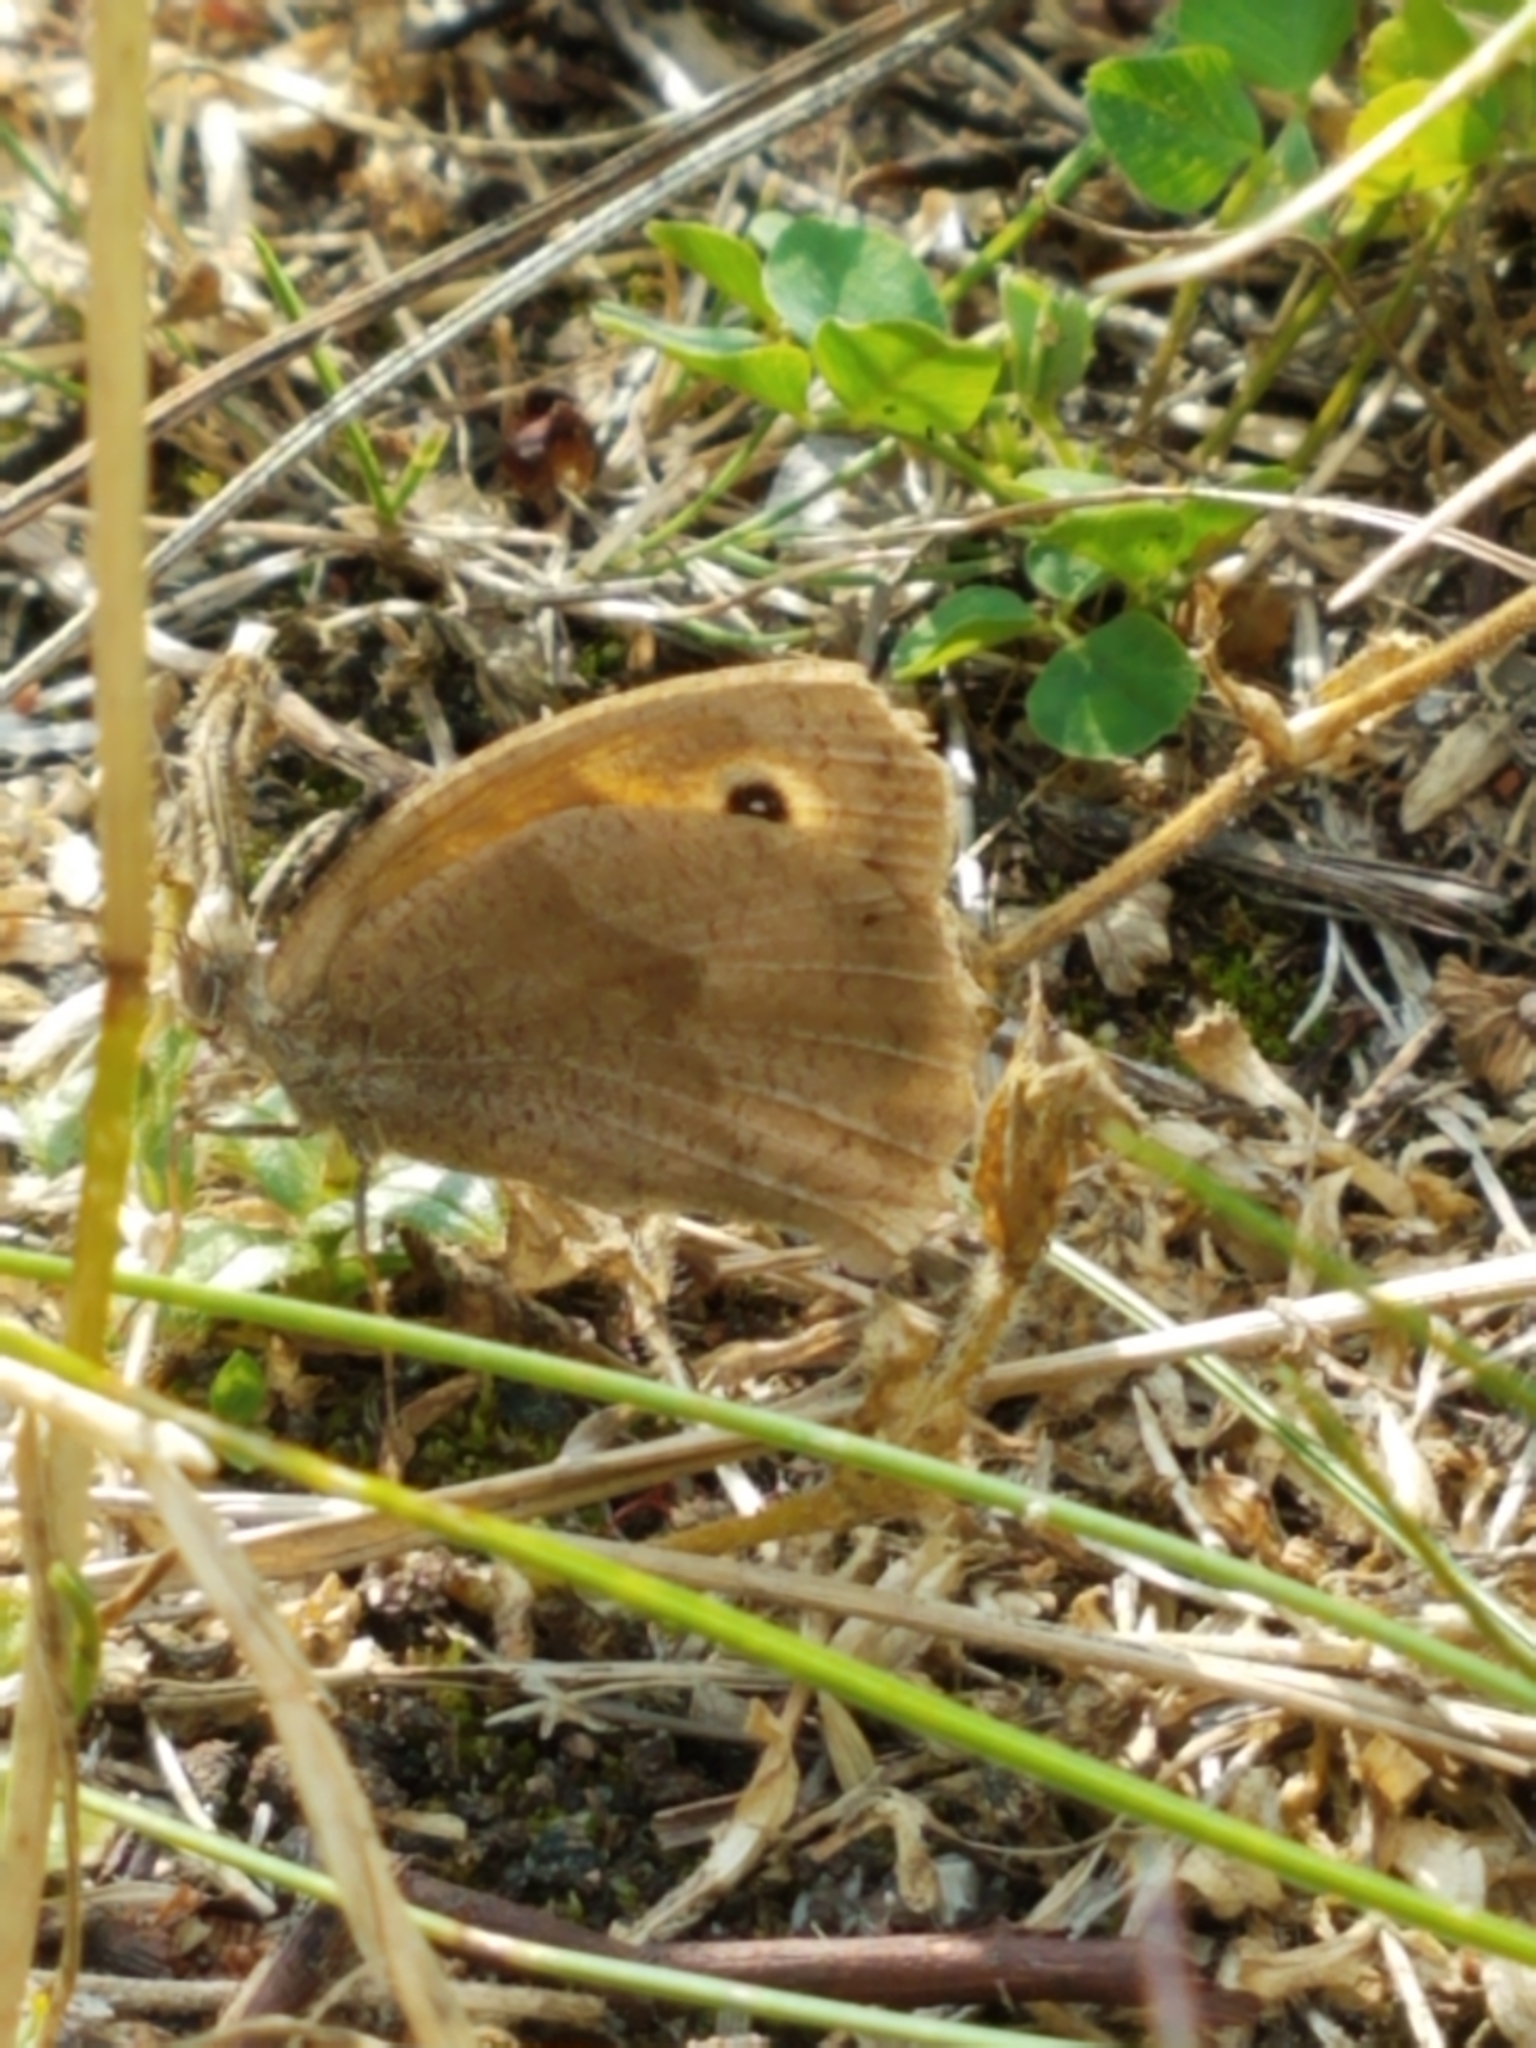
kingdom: Animalia
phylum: Arthropoda
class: Insecta
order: Lepidoptera
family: Nymphalidae
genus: Maniola
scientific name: Maniola jurtina
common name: Meadow brown
